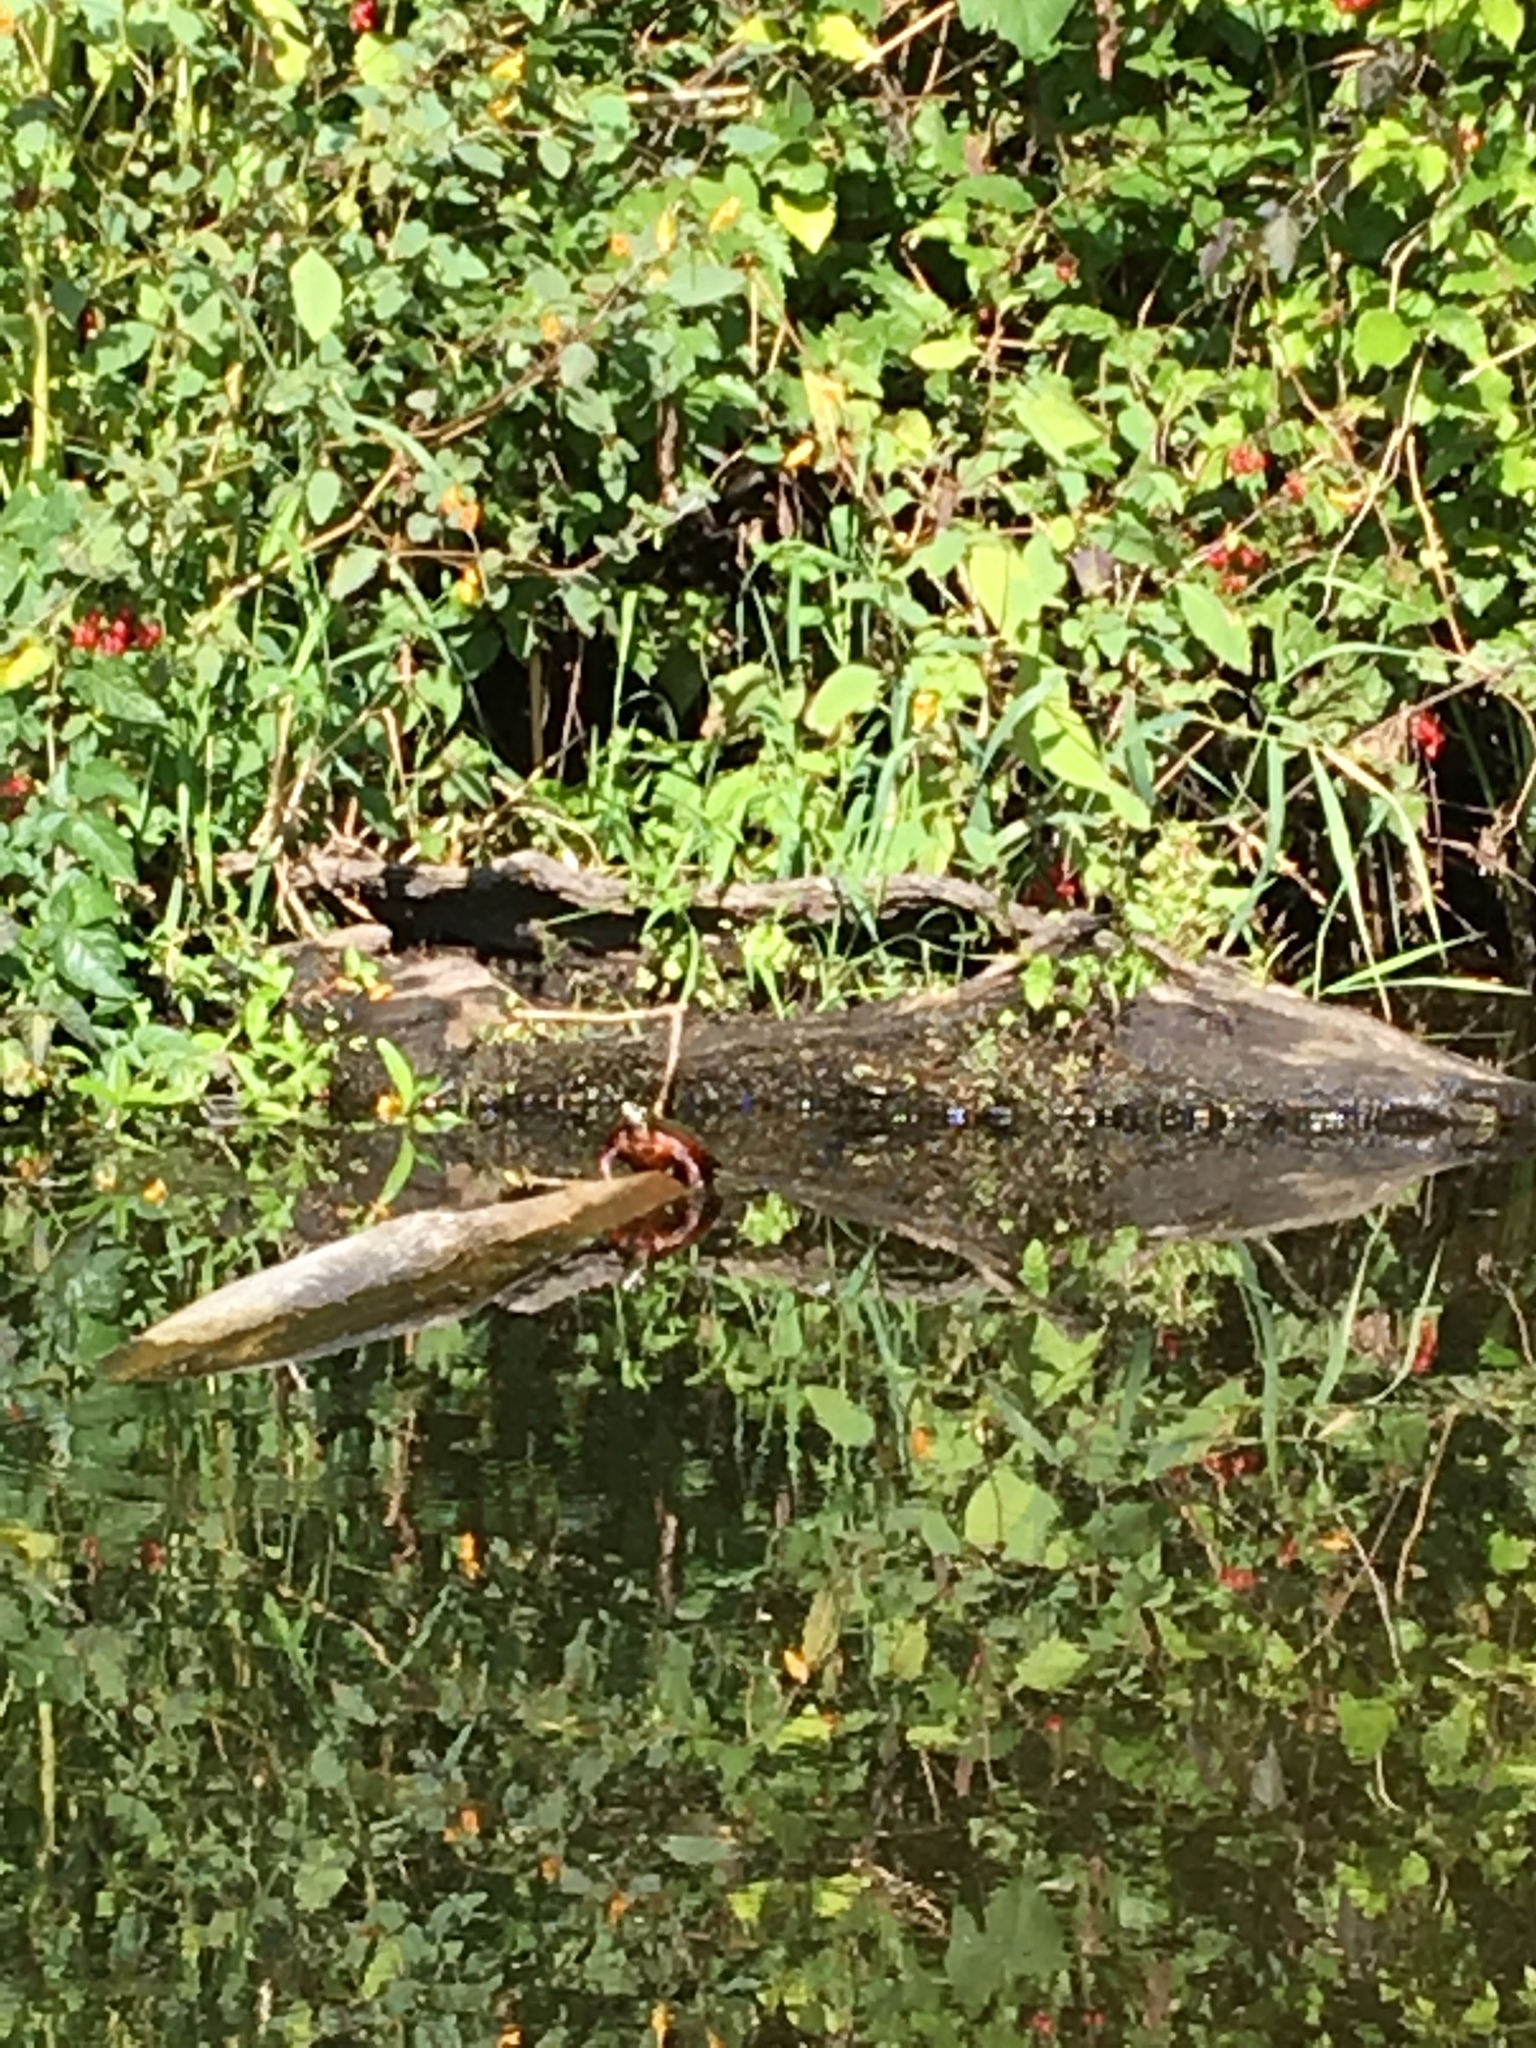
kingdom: Animalia
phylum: Chordata
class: Testudines
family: Emydidae
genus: Chrysemys
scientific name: Chrysemys picta
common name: Painted turtle
